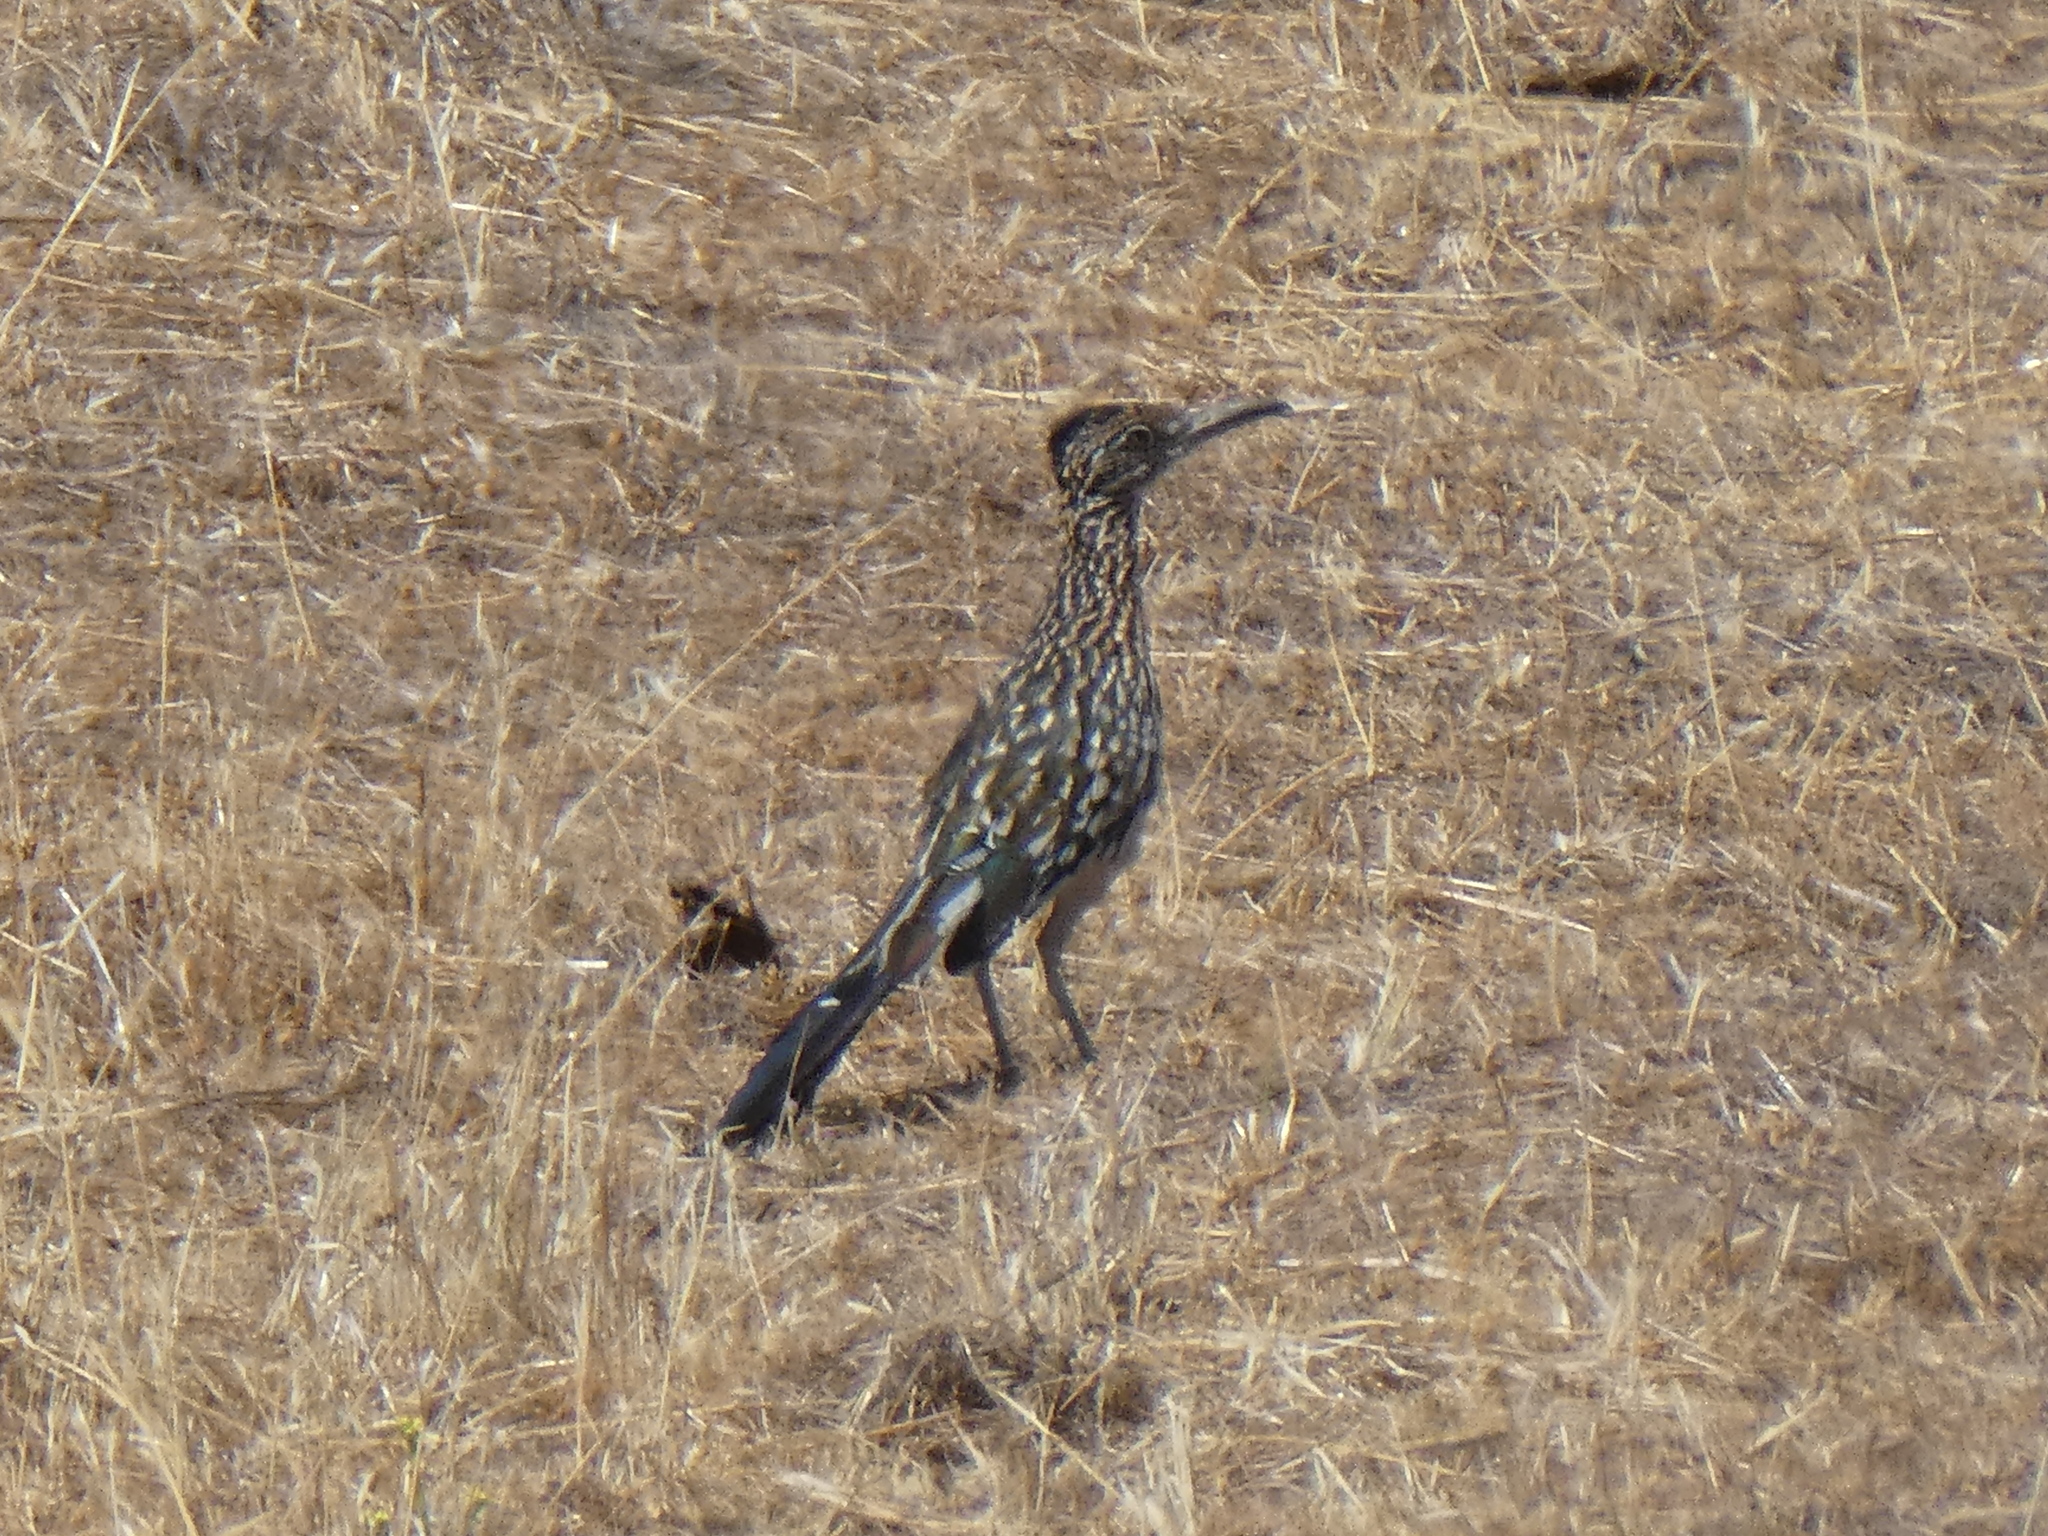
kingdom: Animalia
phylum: Chordata
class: Aves
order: Cuculiformes
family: Cuculidae
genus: Geococcyx
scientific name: Geococcyx californianus
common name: Greater roadrunner
